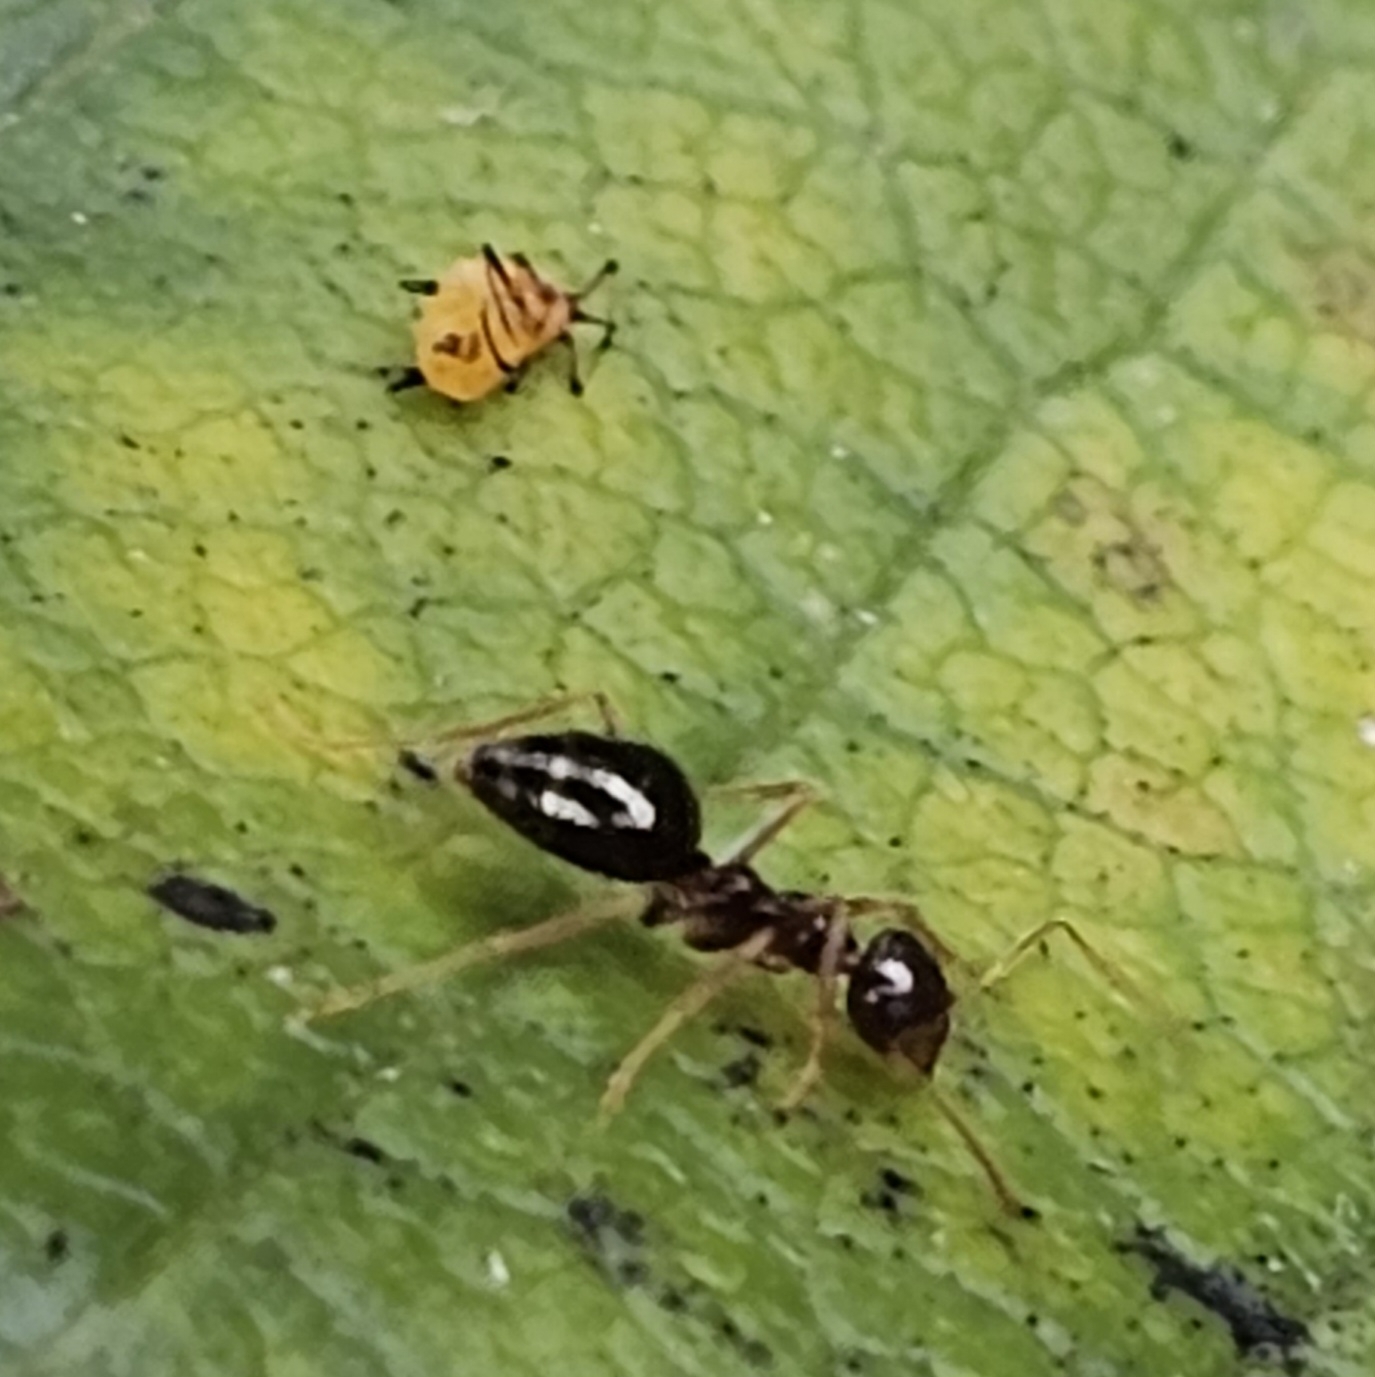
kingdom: Animalia
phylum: Arthropoda
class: Insecta
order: Hemiptera
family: Aphididae
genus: Aphis
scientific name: Aphis nerii
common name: Oleander aphid
